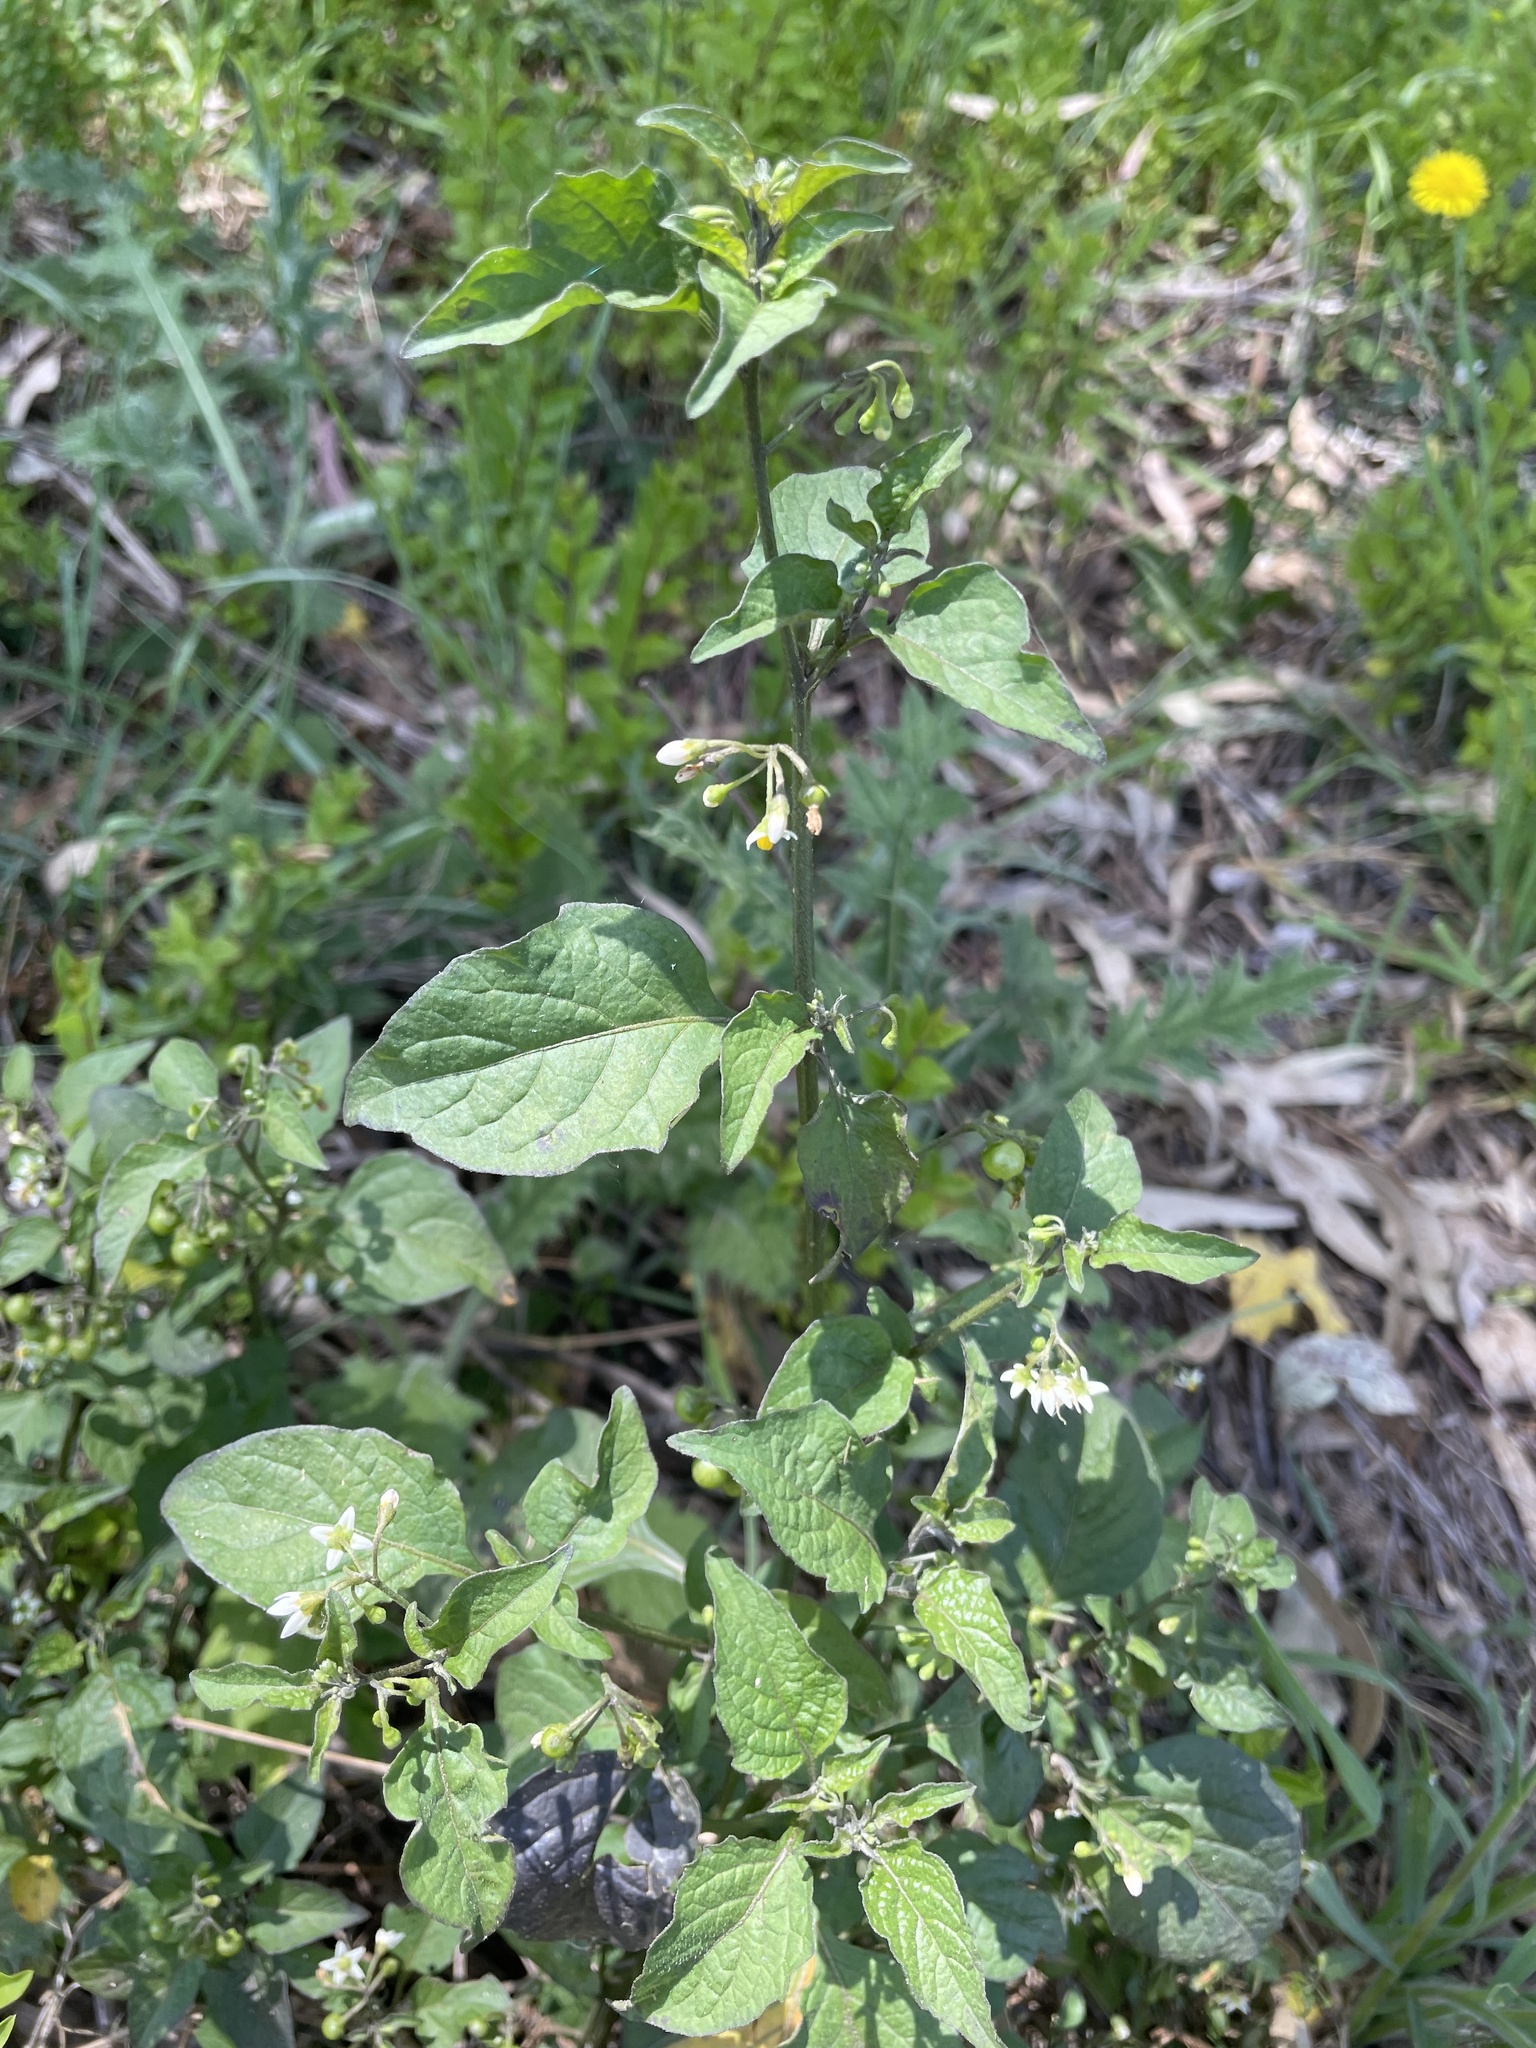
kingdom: Plantae
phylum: Tracheophyta
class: Magnoliopsida
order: Solanales
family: Solanaceae
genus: Solanum
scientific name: Solanum nigrum
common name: Black nightshade
